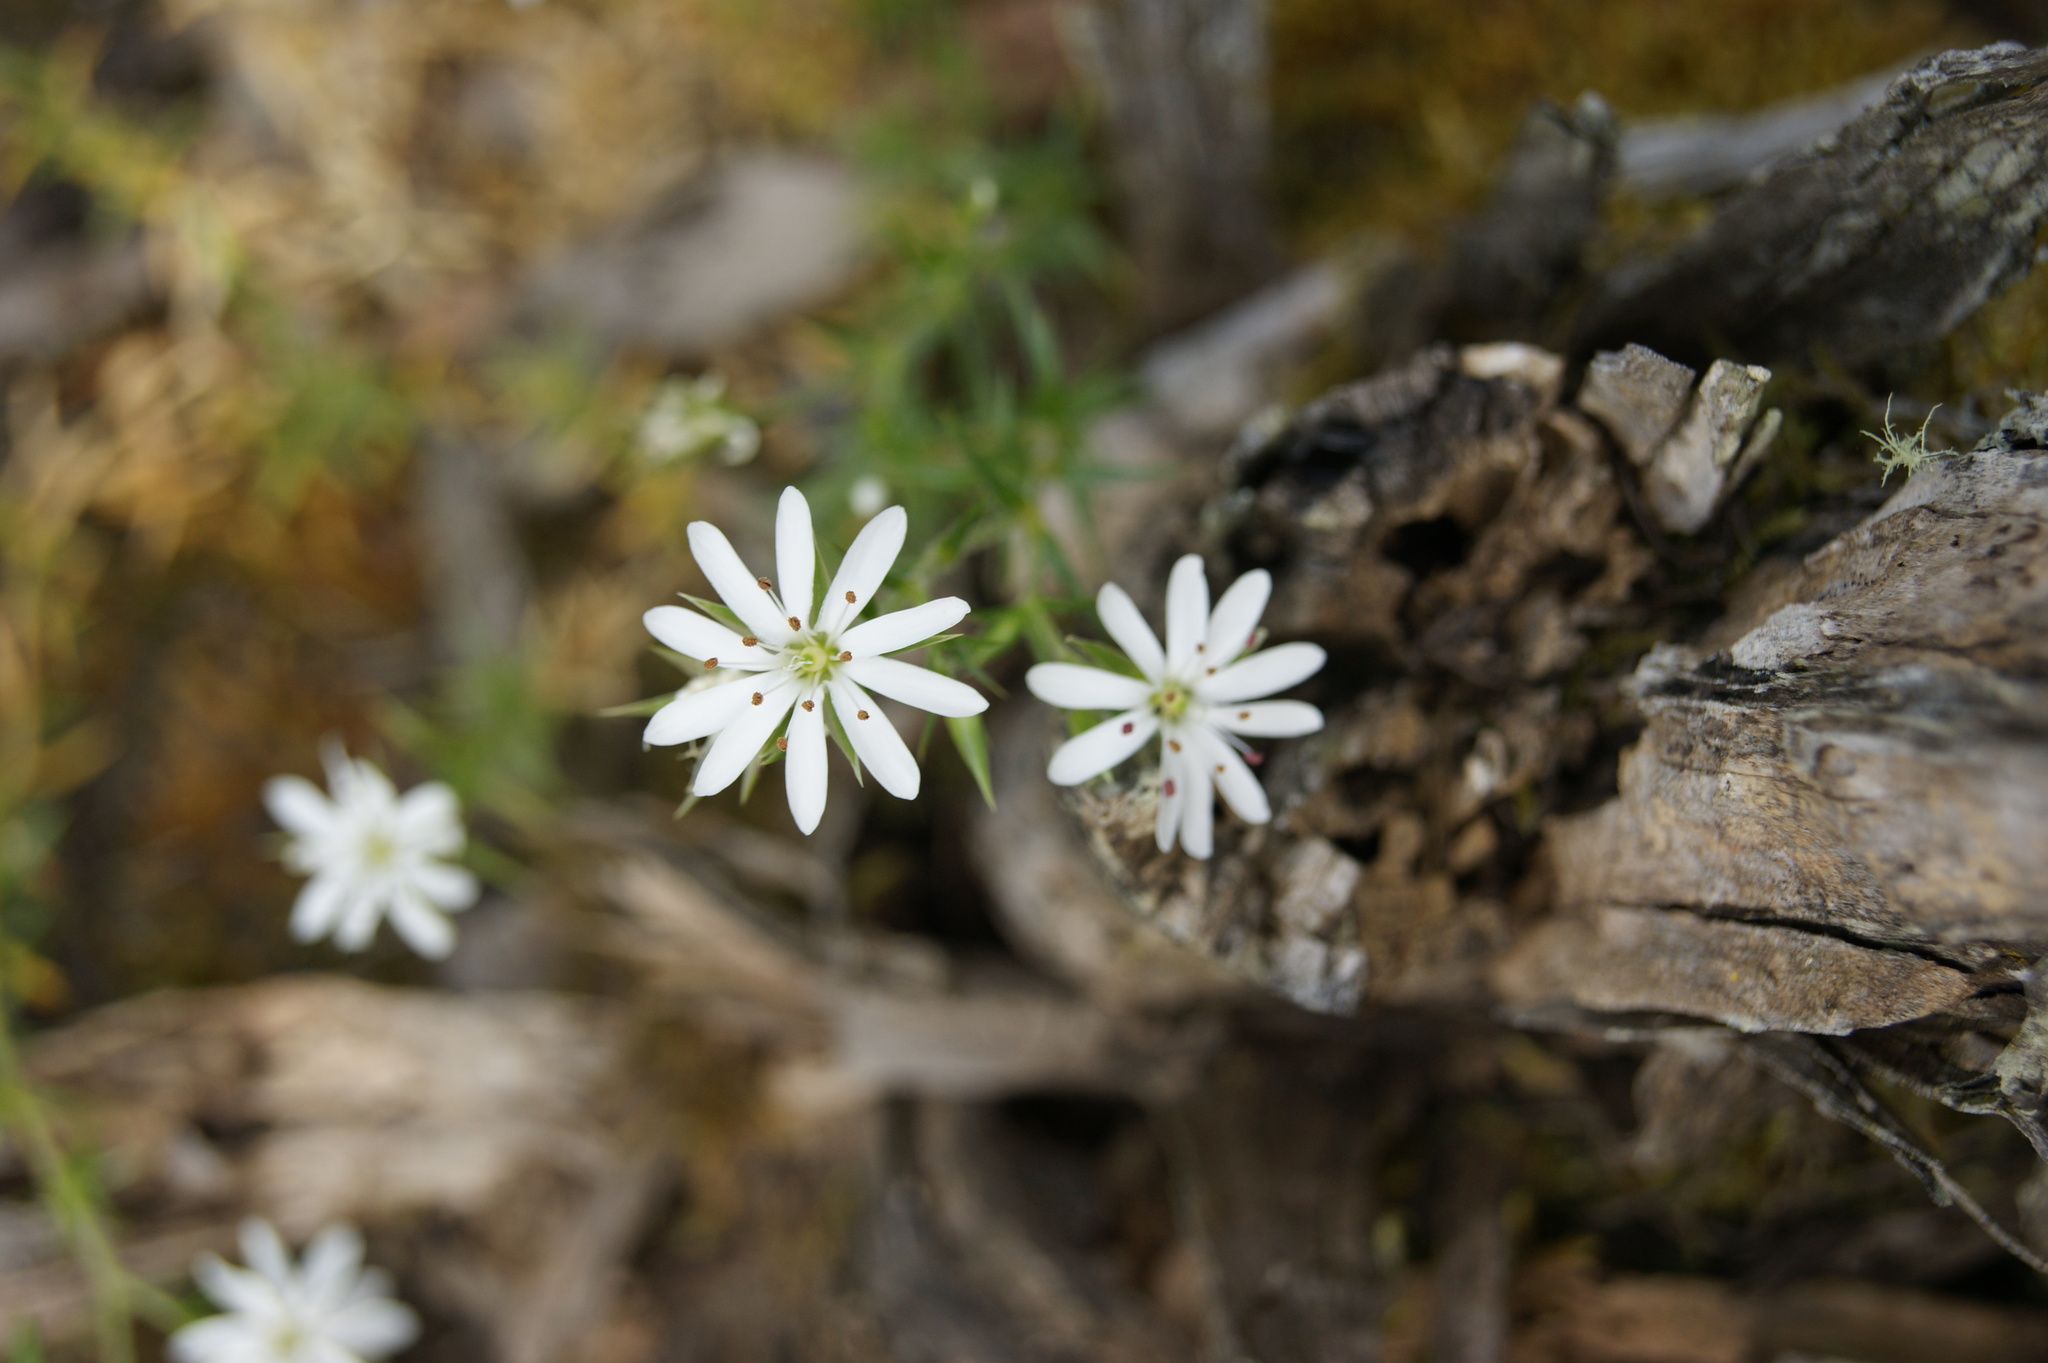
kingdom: Plantae
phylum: Tracheophyta
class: Magnoliopsida
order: Caryophyllales
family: Caryophyllaceae
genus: Stellaria
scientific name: Stellaria pungens
